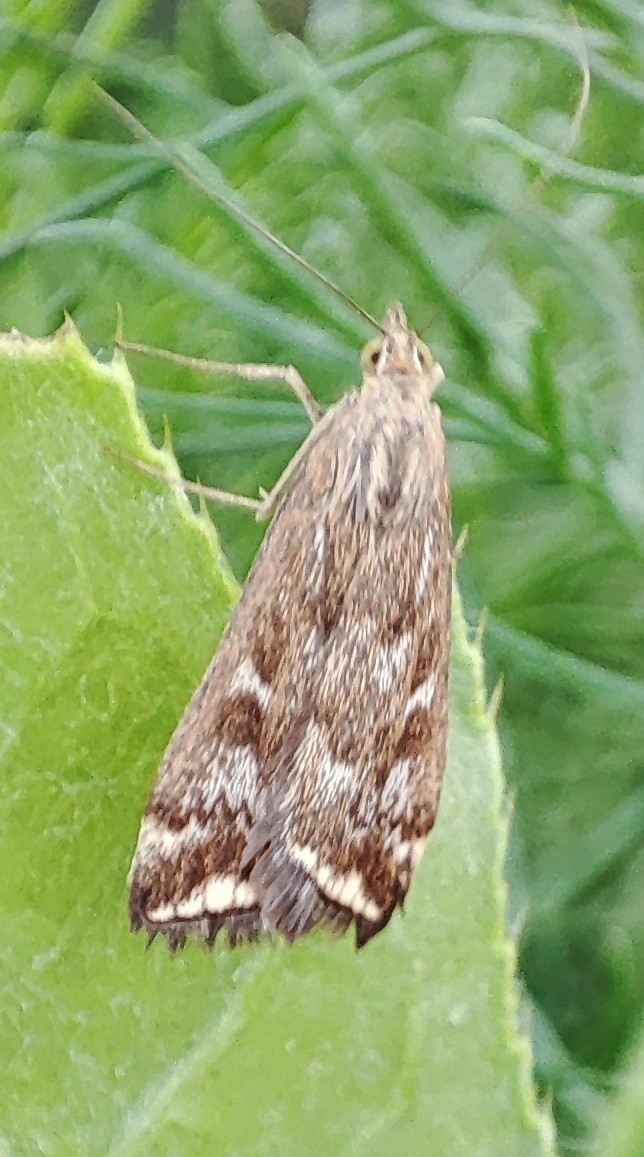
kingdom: Animalia
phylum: Arthropoda
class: Insecta
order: Lepidoptera
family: Crambidae
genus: Loxostege
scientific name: Loxostege sticticalis
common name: Crambid moth
